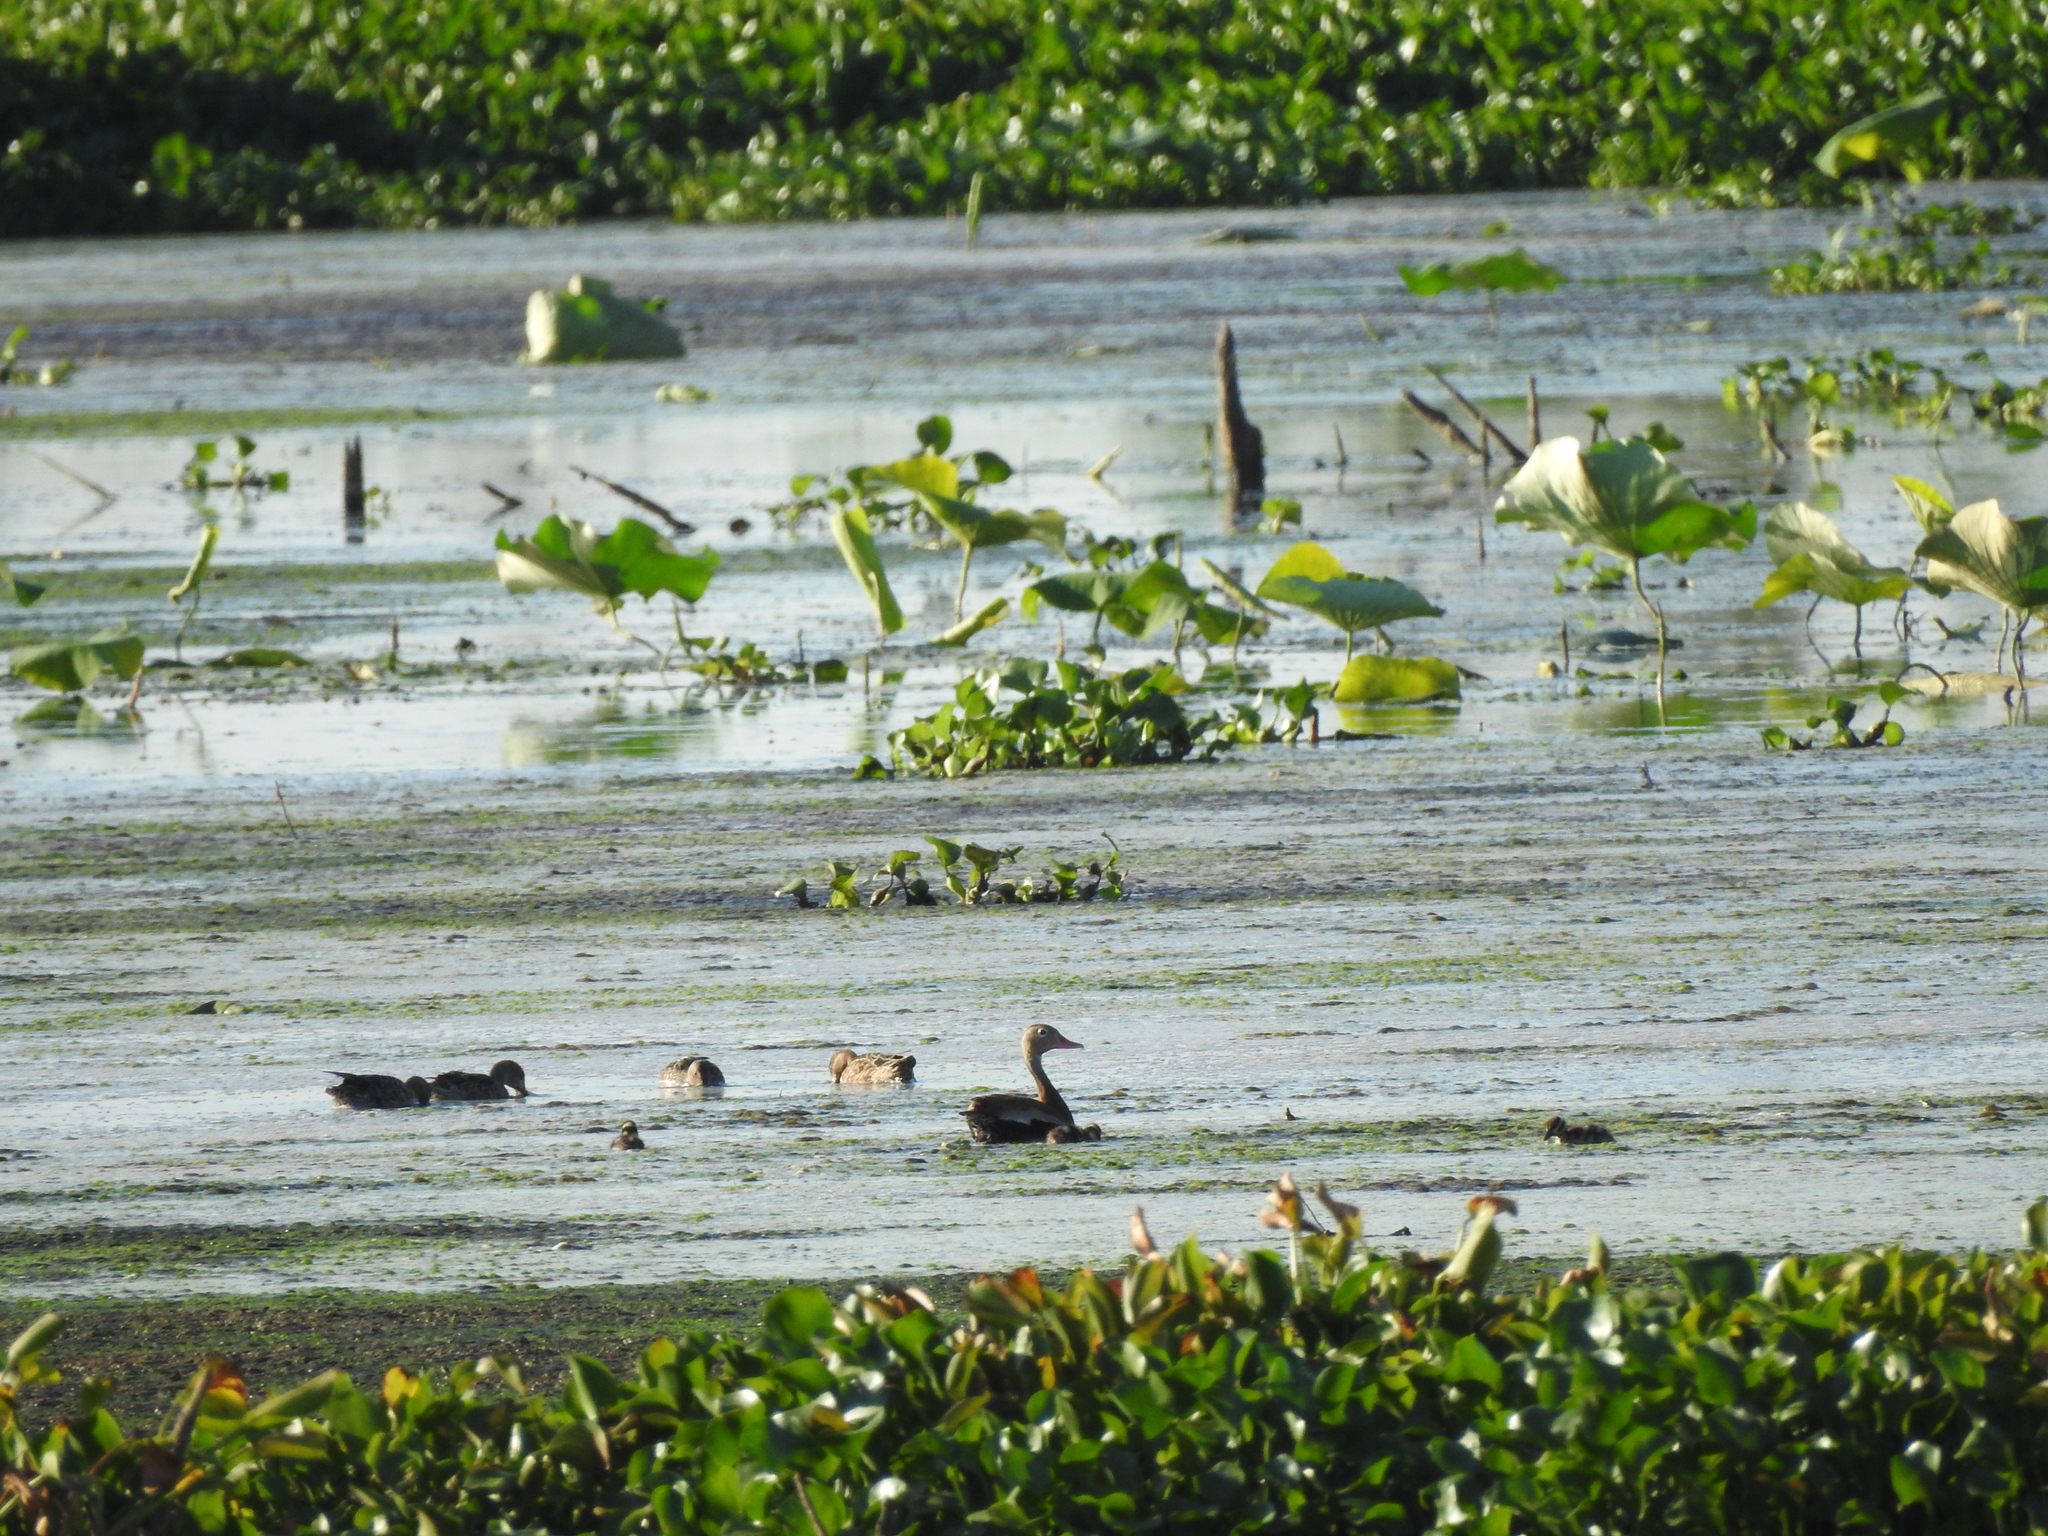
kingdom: Animalia
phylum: Chordata
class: Aves
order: Anseriformes
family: Anatidae
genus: Dendrocygna
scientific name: Dendrocygna autumnalis
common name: Black-bellied whistling duck
